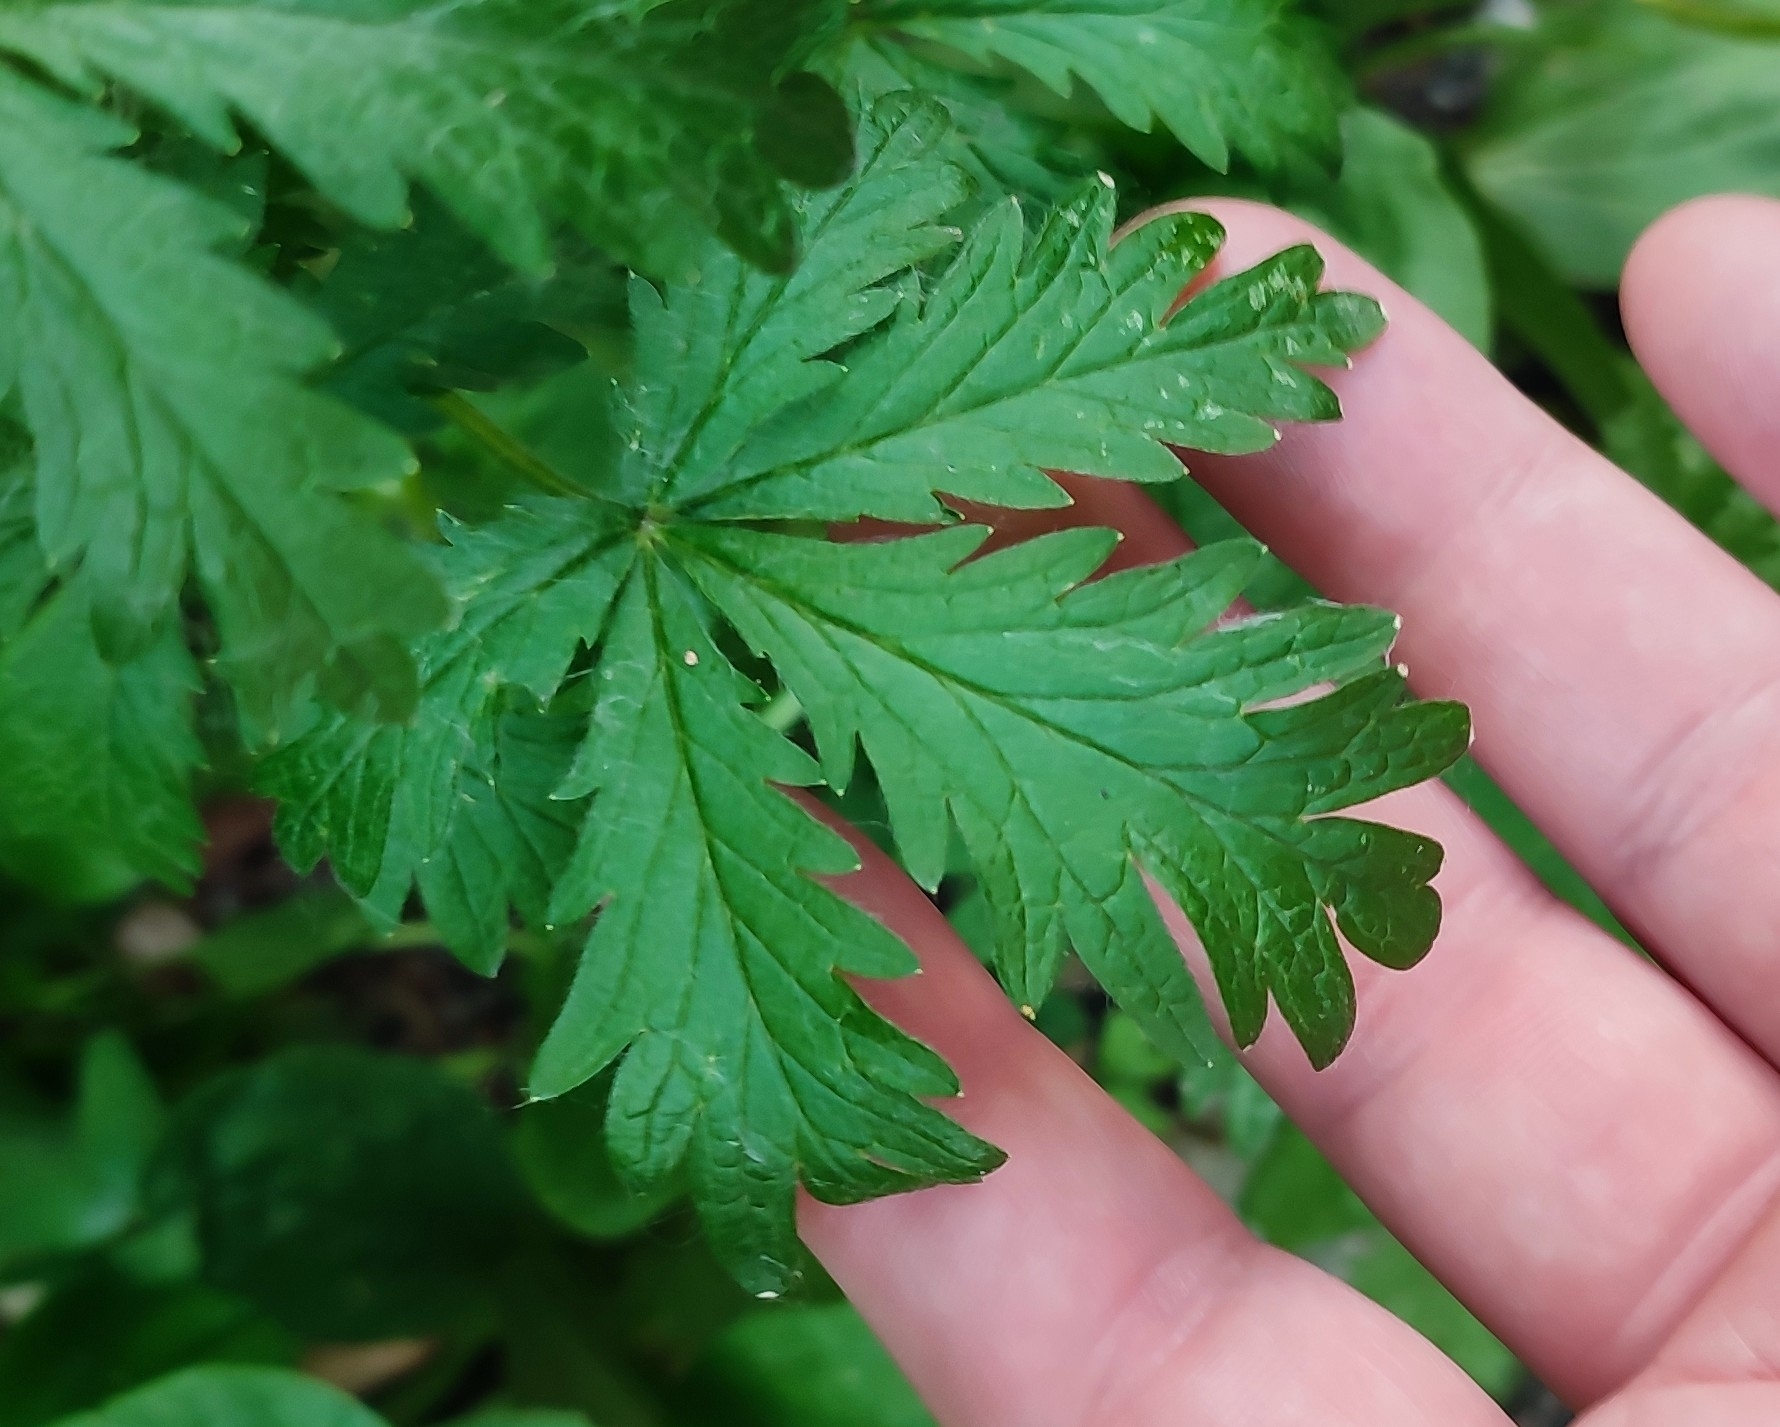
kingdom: Plantae
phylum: Tracheophyta
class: Magnoliopsida
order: Rosales
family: Rosaceae
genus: Potentilla
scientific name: Potentilla intermedia
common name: Downy cinquefoil
